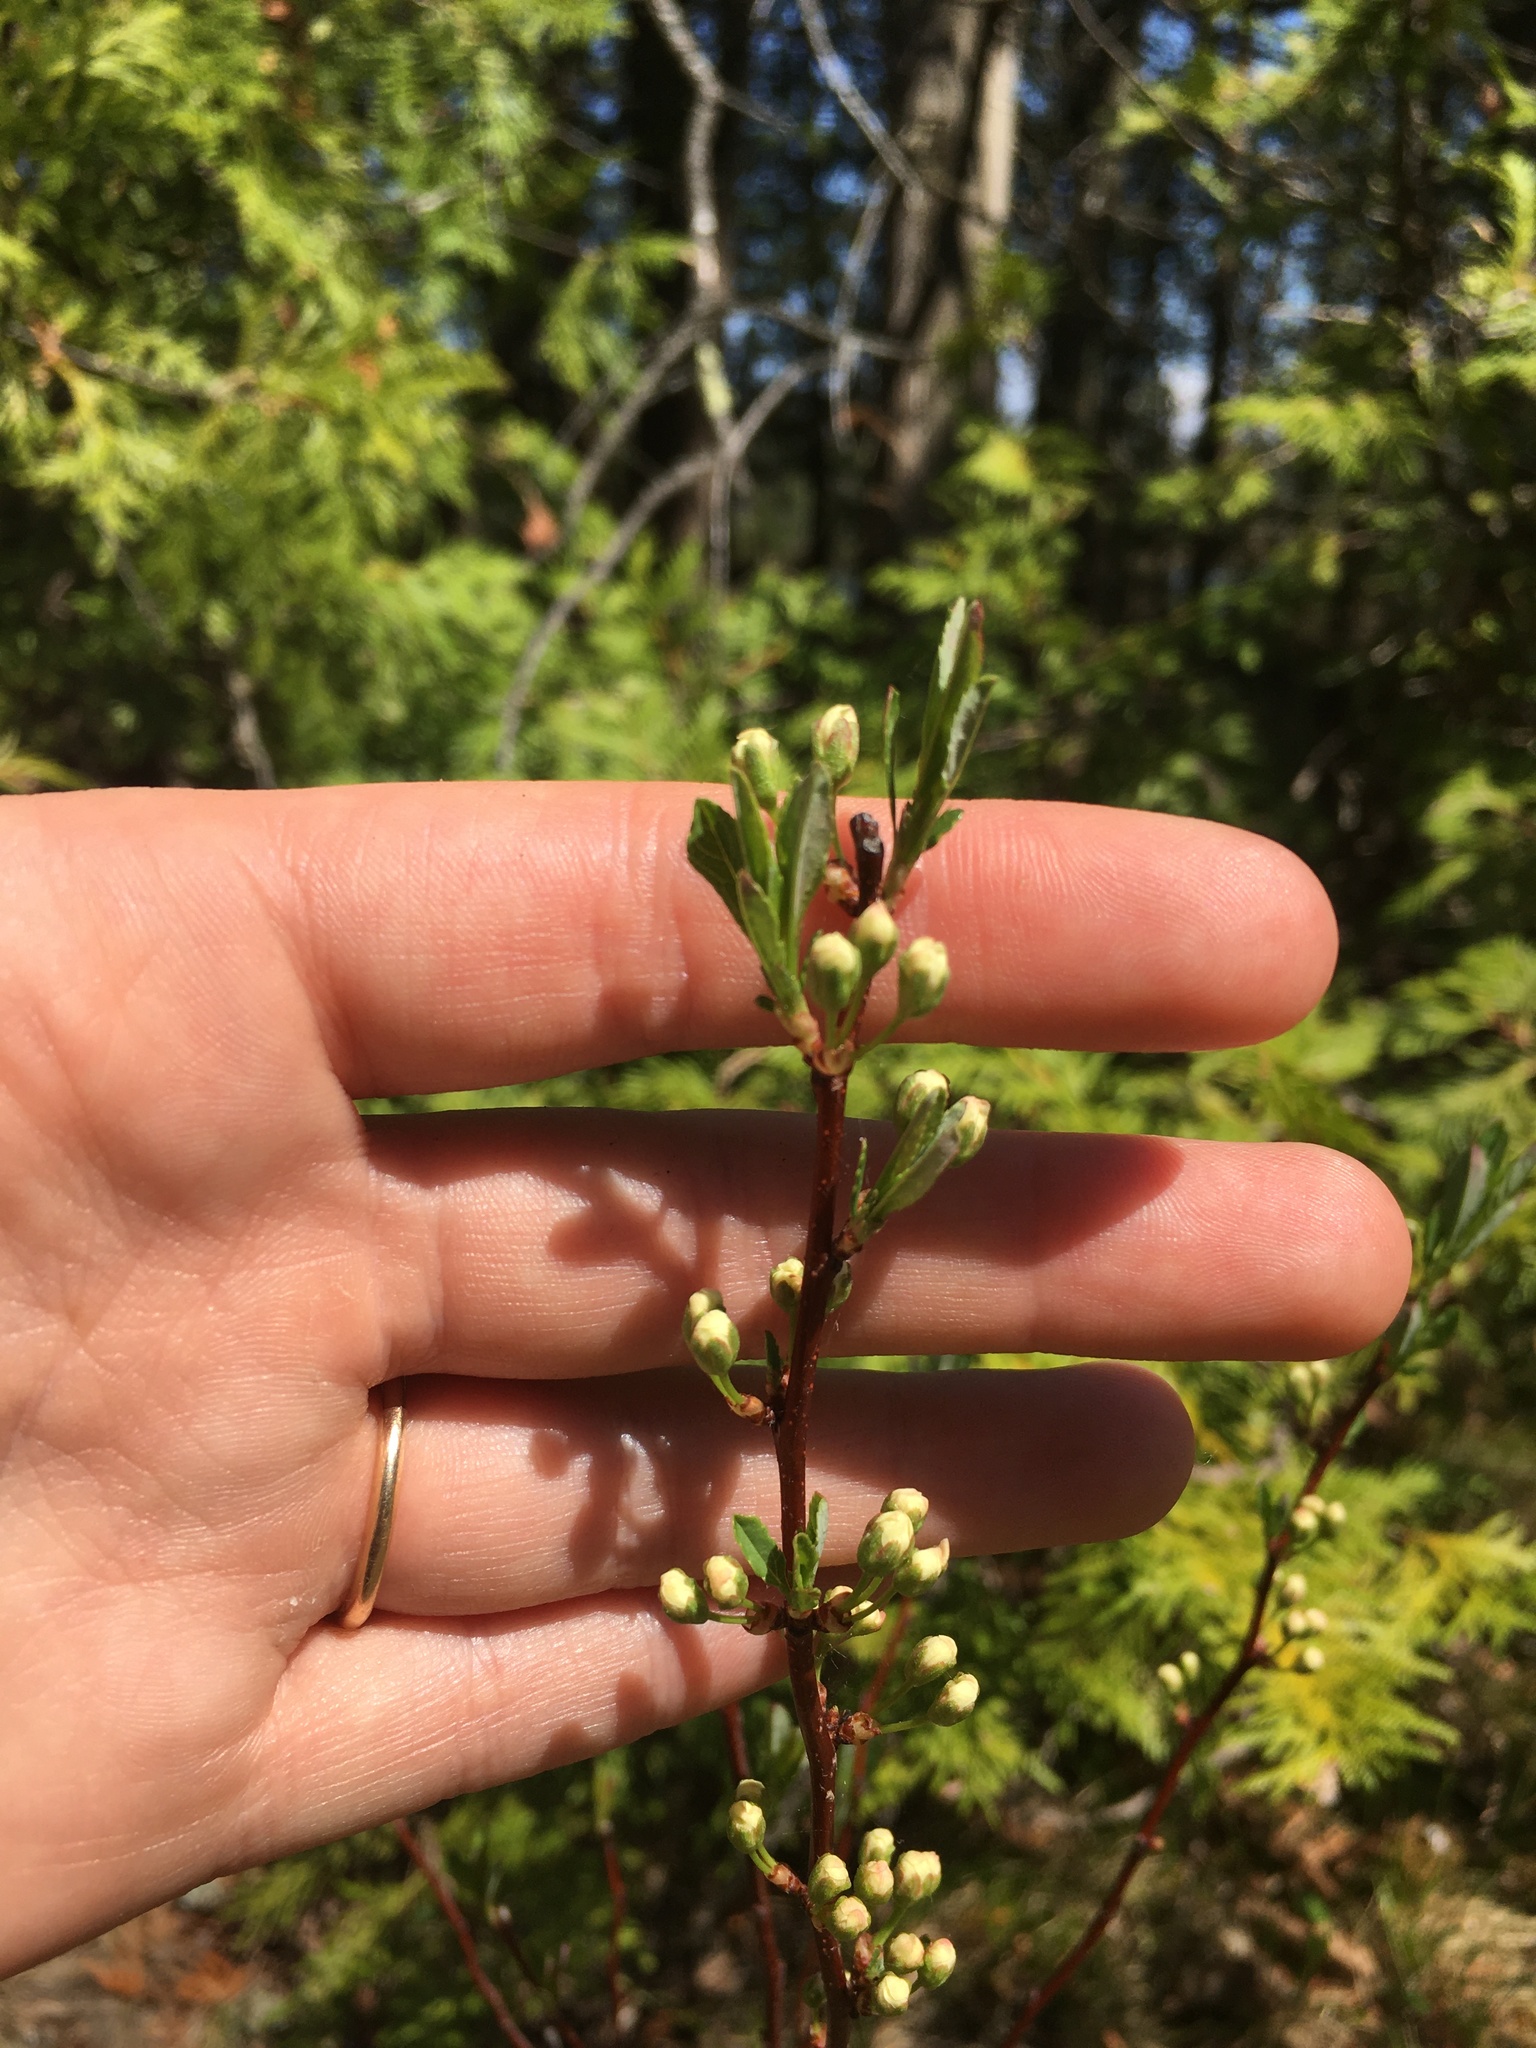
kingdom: Plantae
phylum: Tracheophyta
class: Magnoliopsida
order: Rosales
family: Rosaceae
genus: Prunus
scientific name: Prunus pumila
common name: Dwarf cherry
